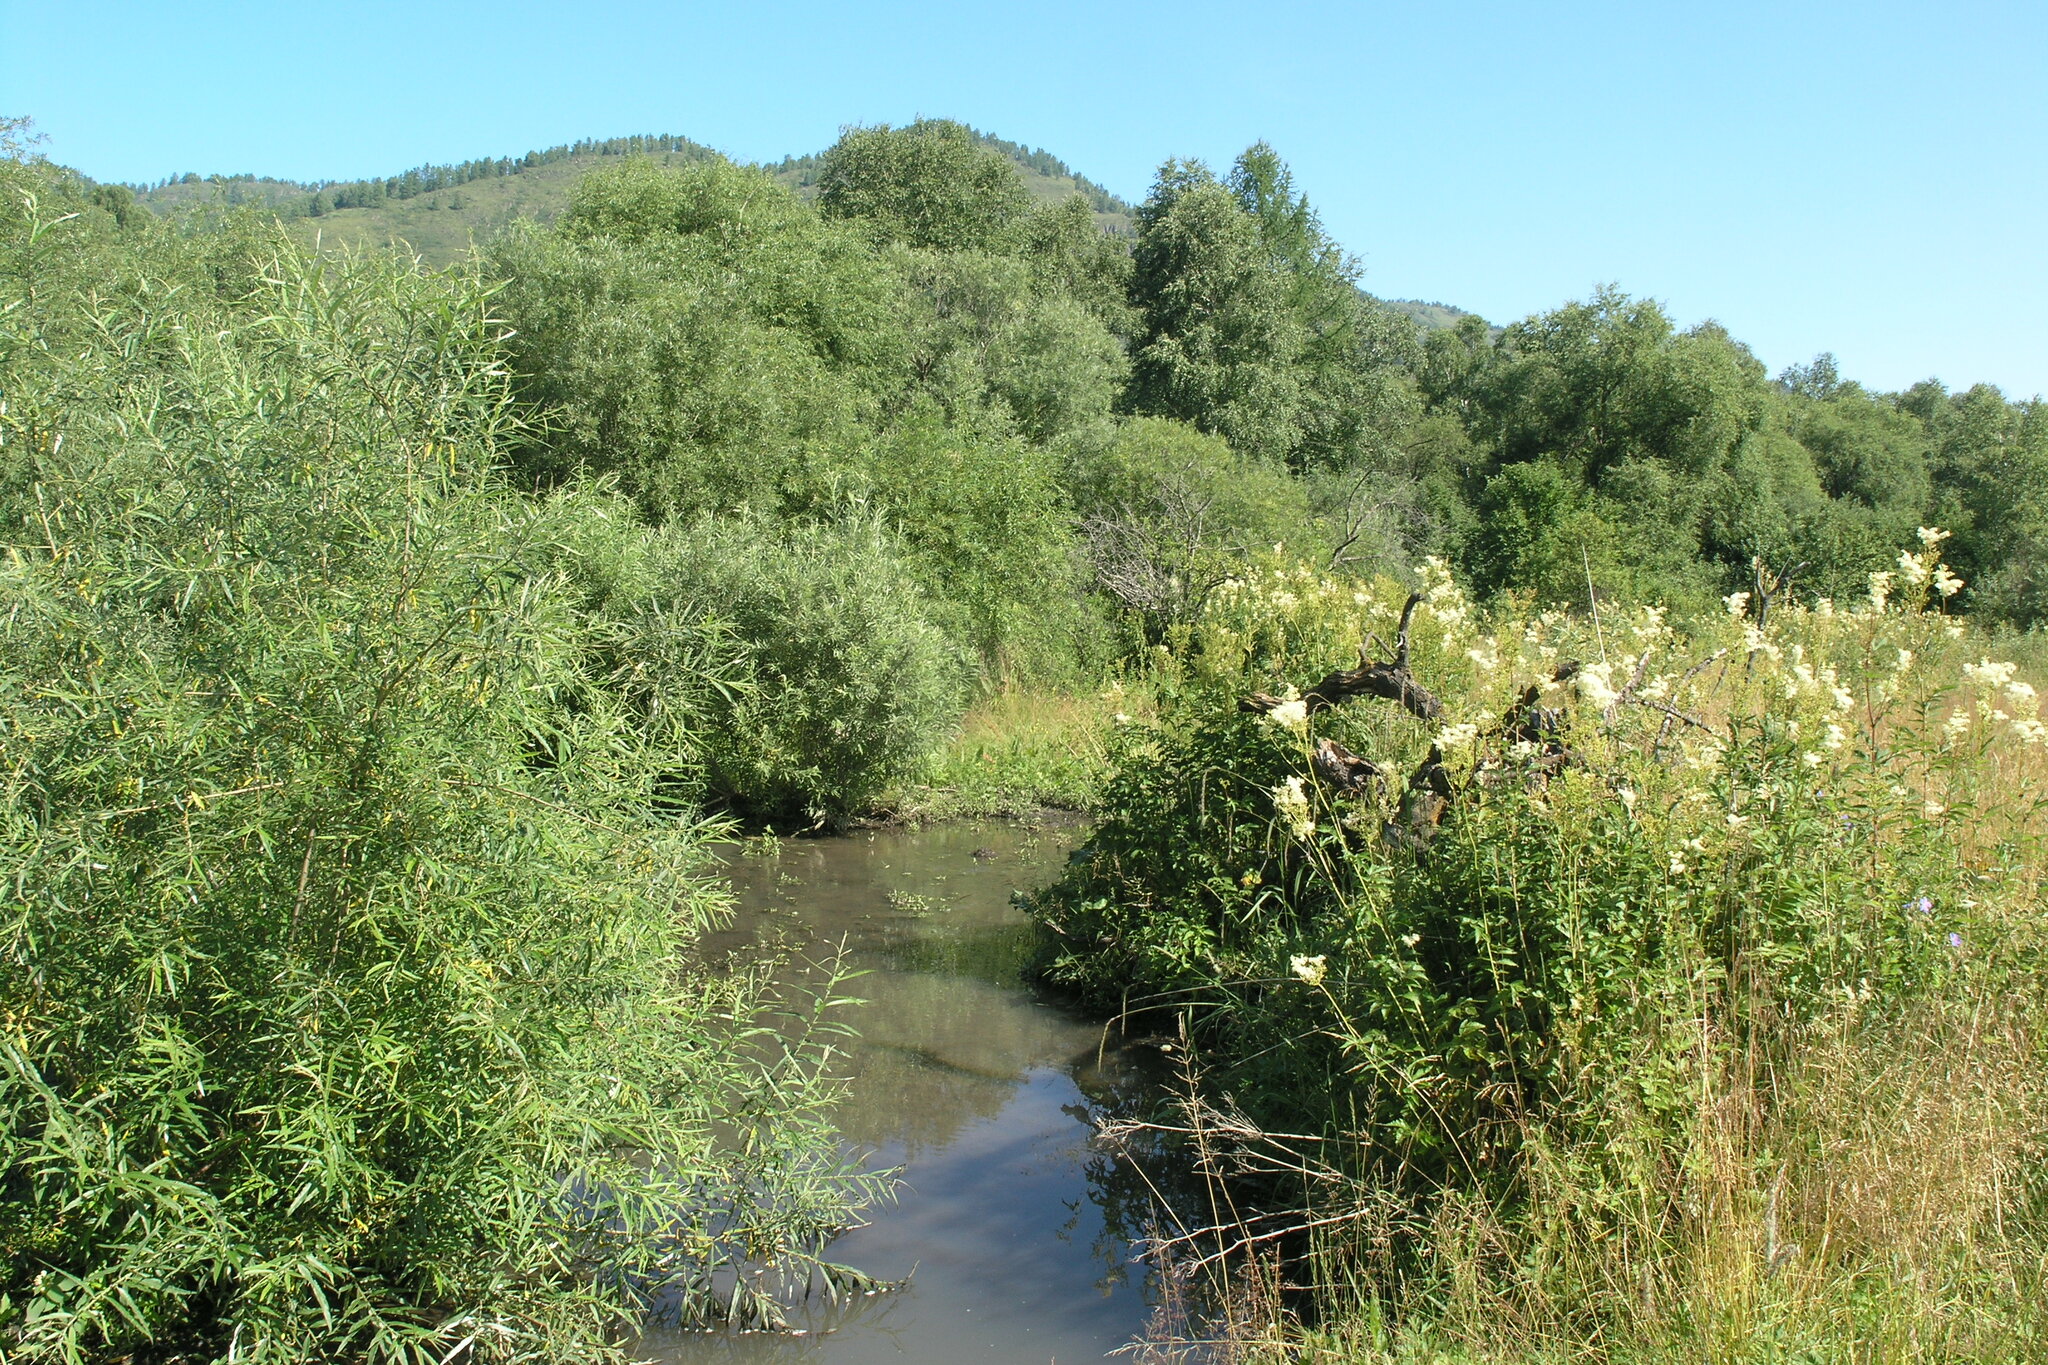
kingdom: Plantae
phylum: Tracheophyta
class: Magnoliopsida
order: Rosales
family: Rosaceae
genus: Filipendula
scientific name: Filipendula ulmaria
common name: Meadowsweet
